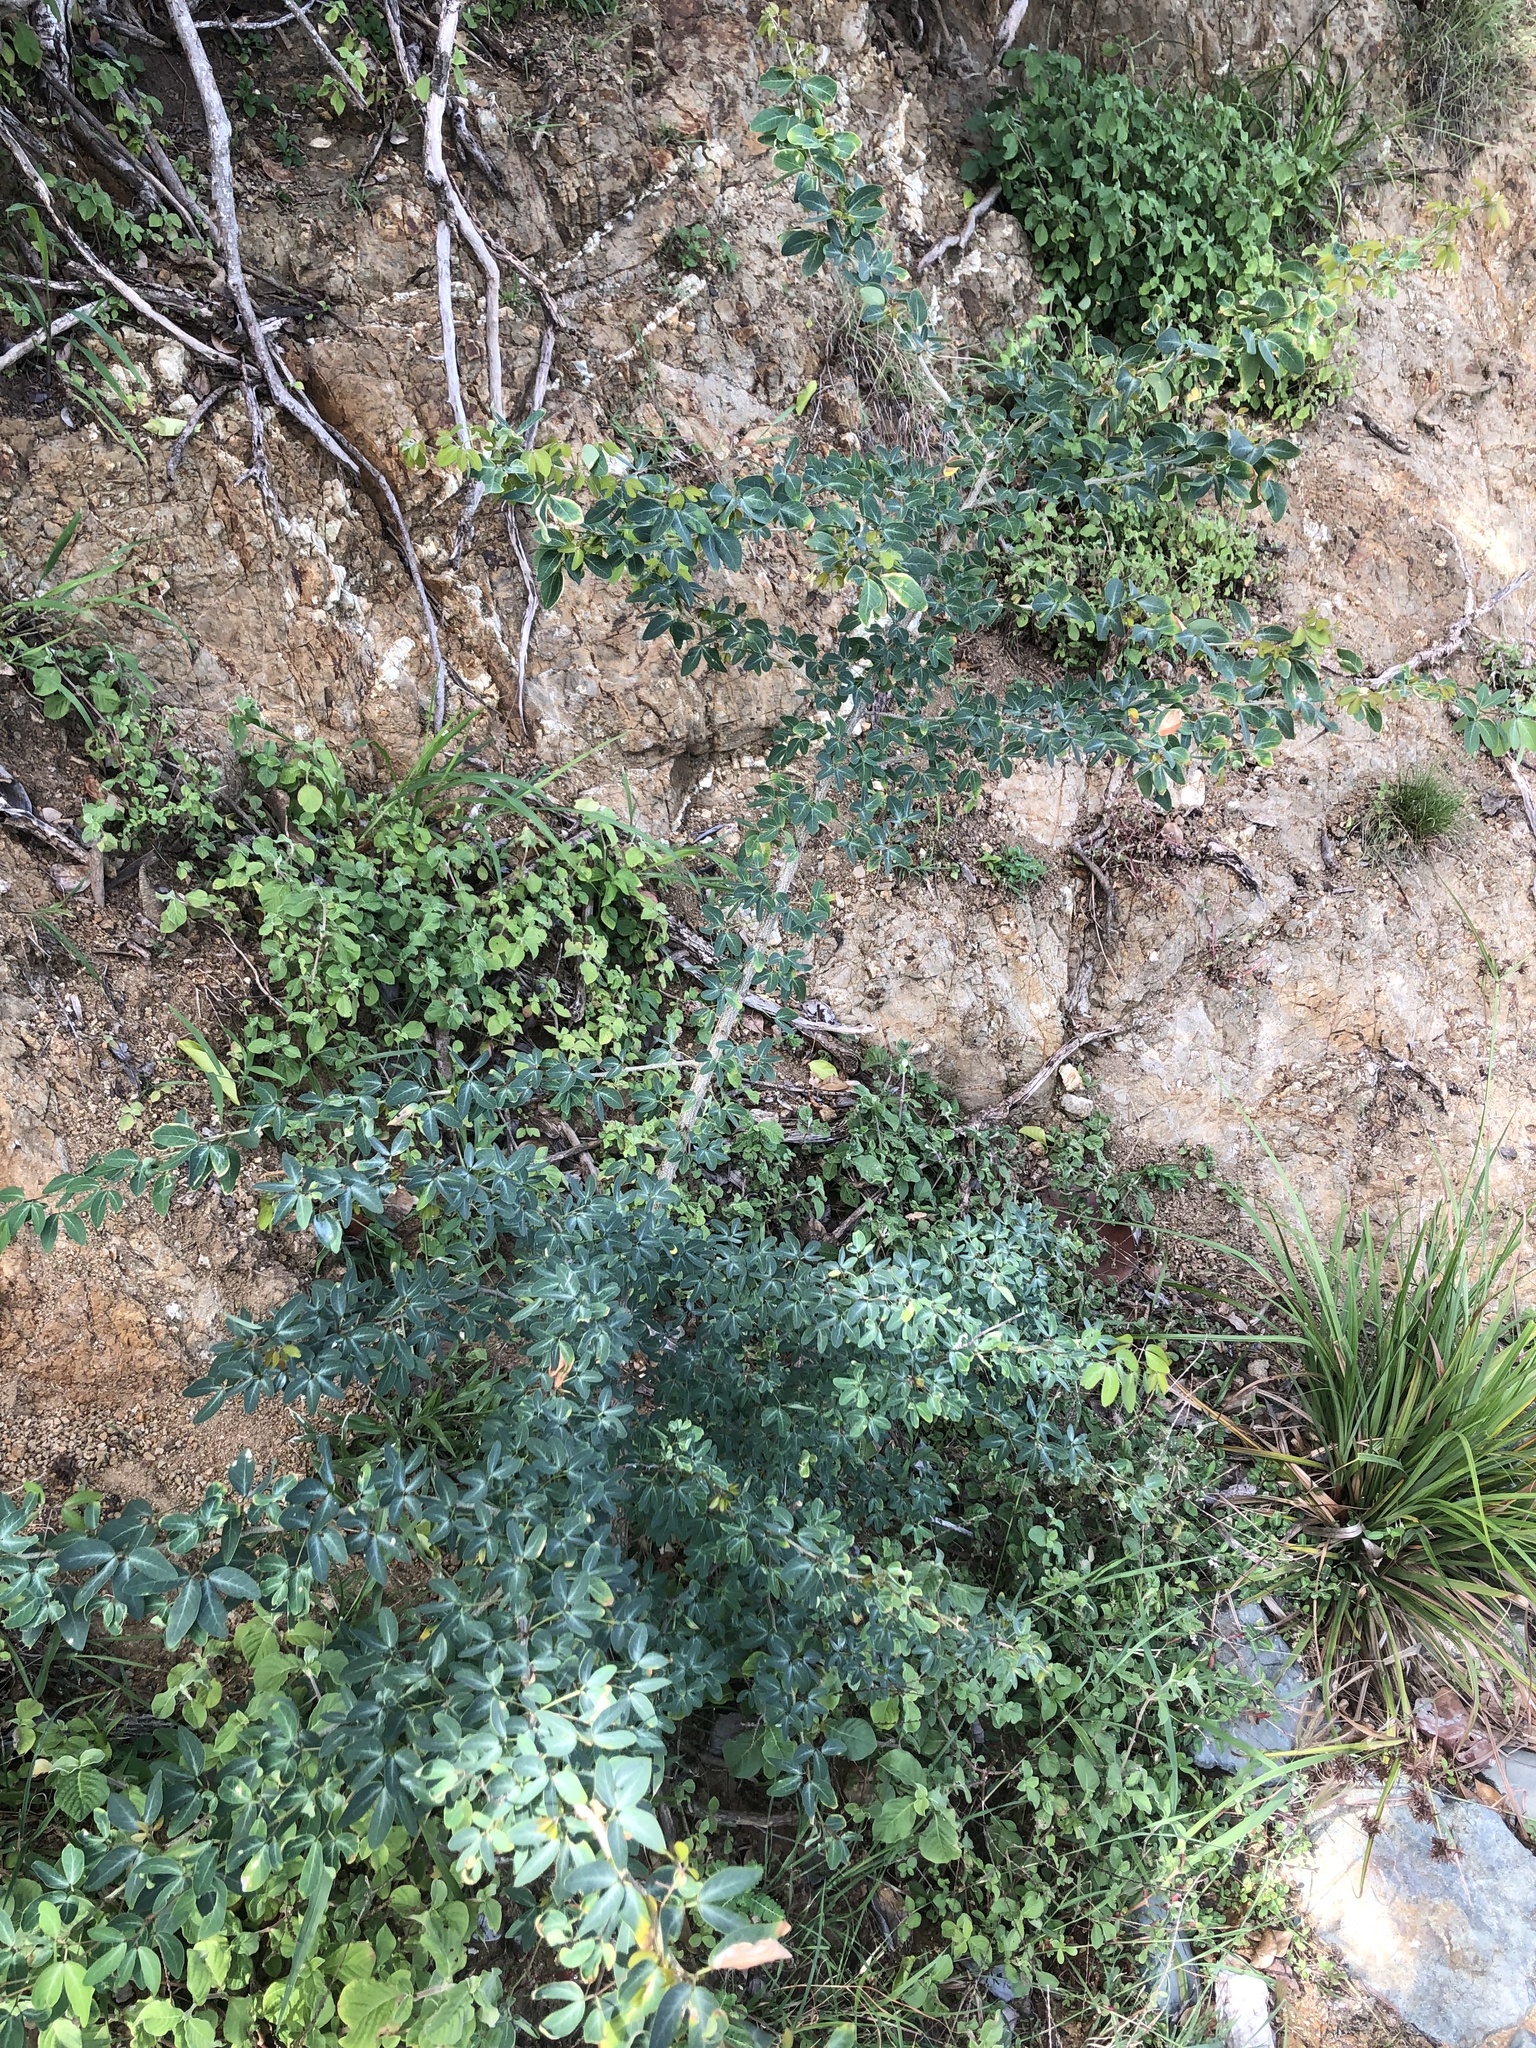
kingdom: Plantae
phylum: Tracheophyta
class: Magnoliopsida
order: Fabales
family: Fabaceae
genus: Pithecellobium
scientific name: Pithecellobium dulce
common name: Monkeypod
